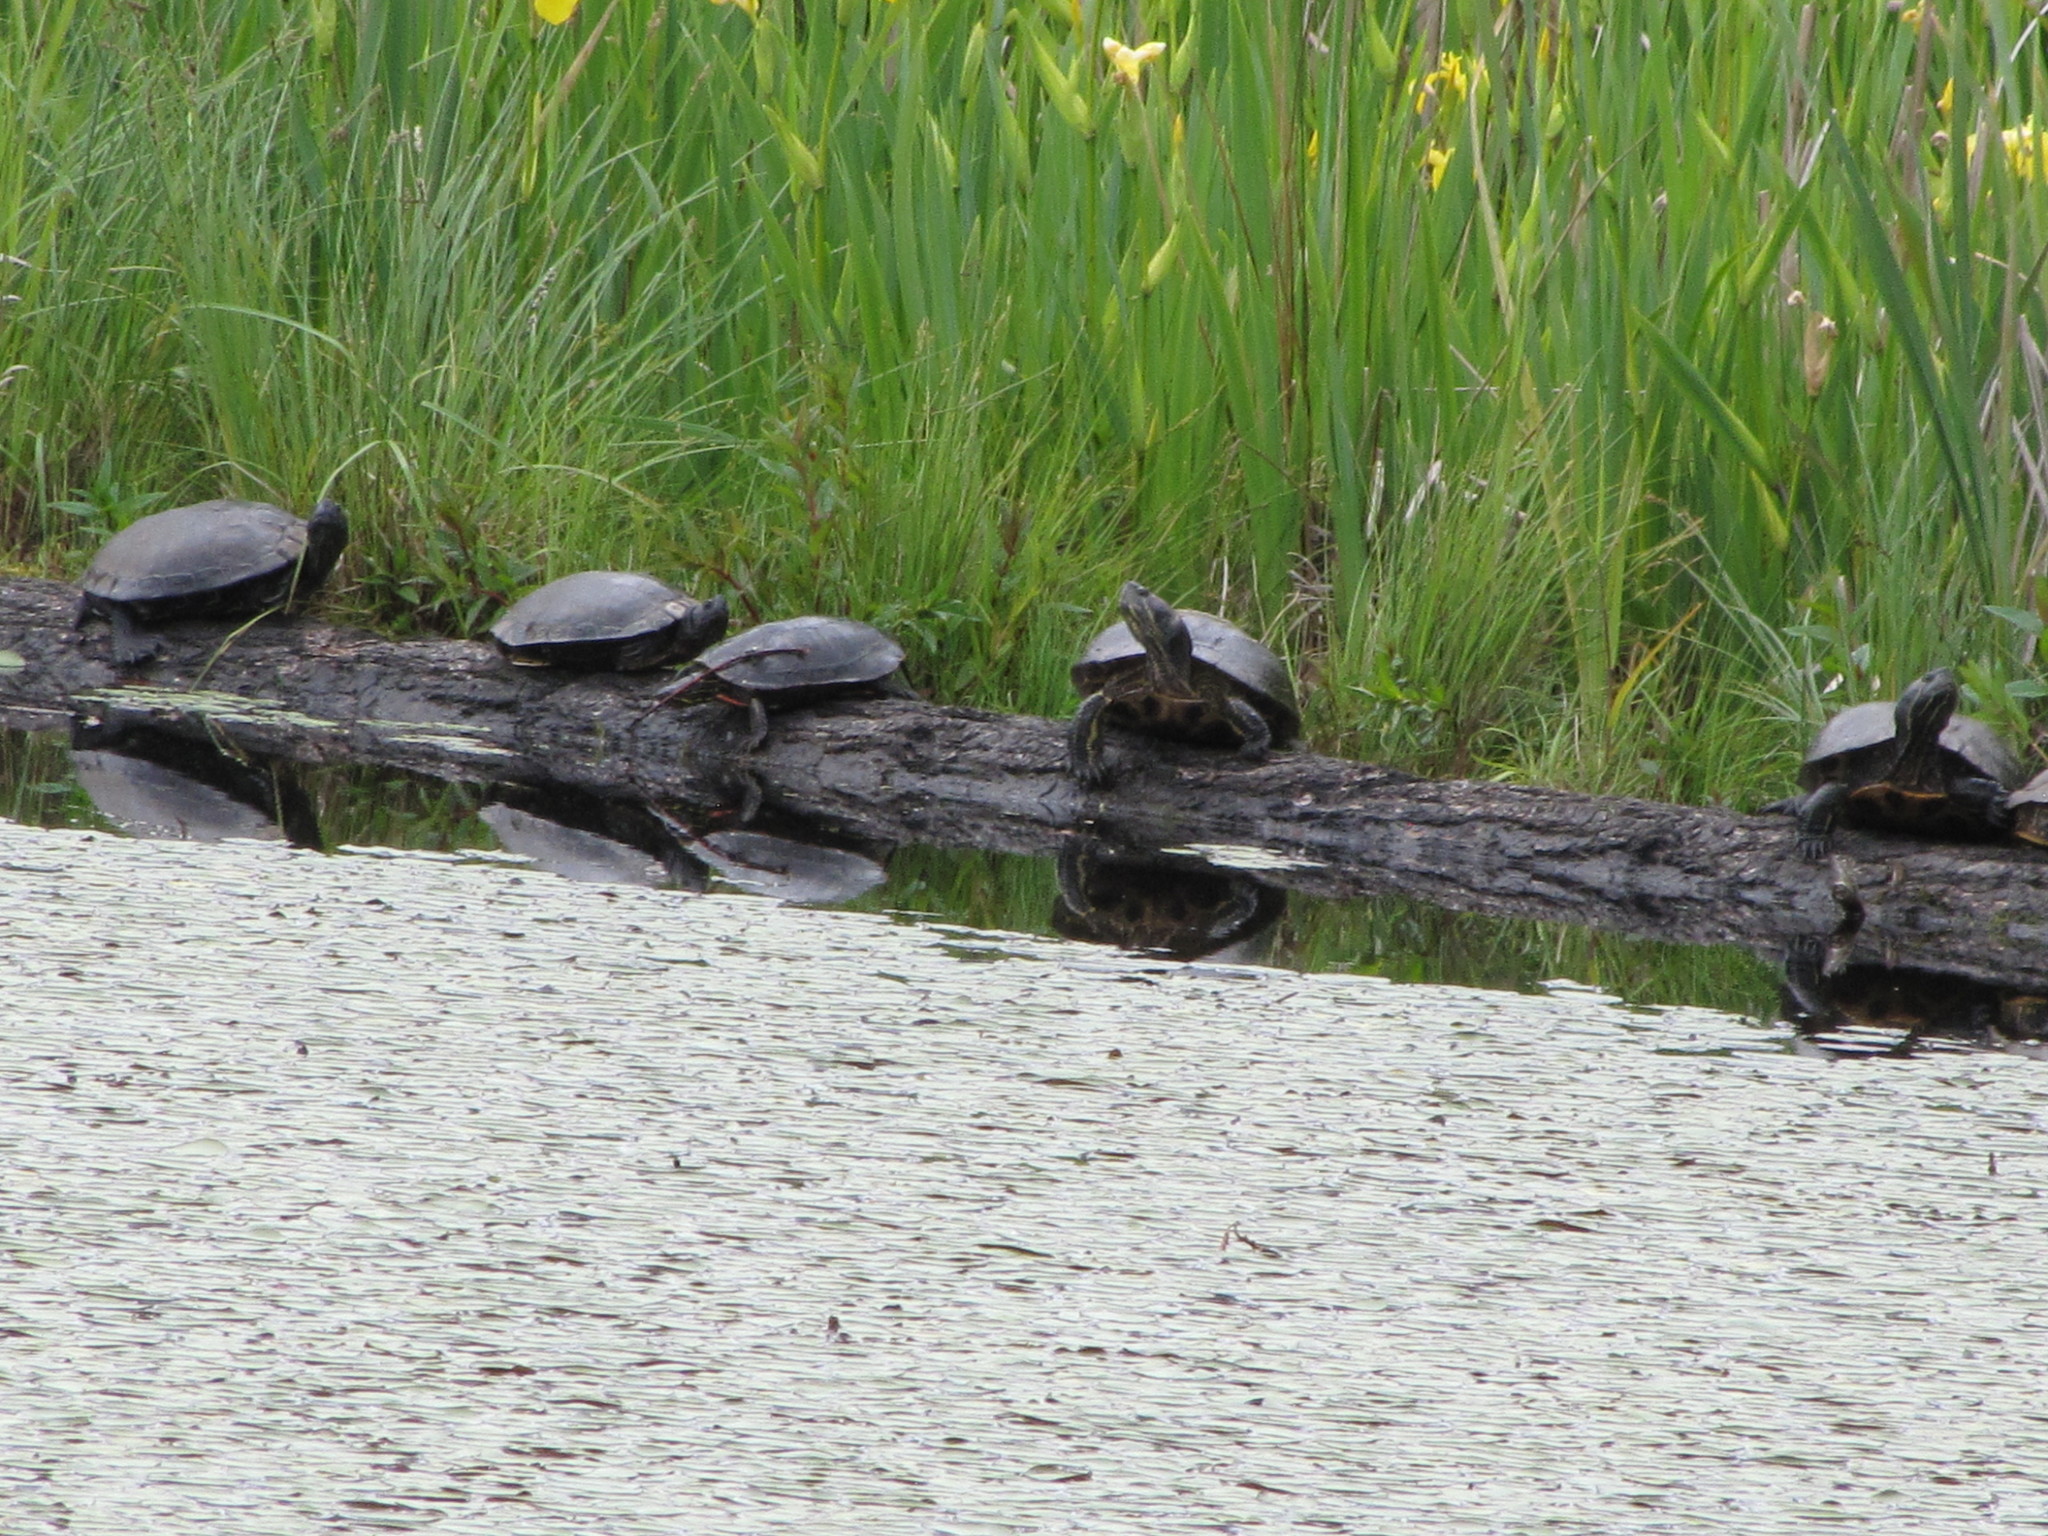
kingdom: Animalia
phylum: Chordata
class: Testudines
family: Emydidae
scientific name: Emydidae
